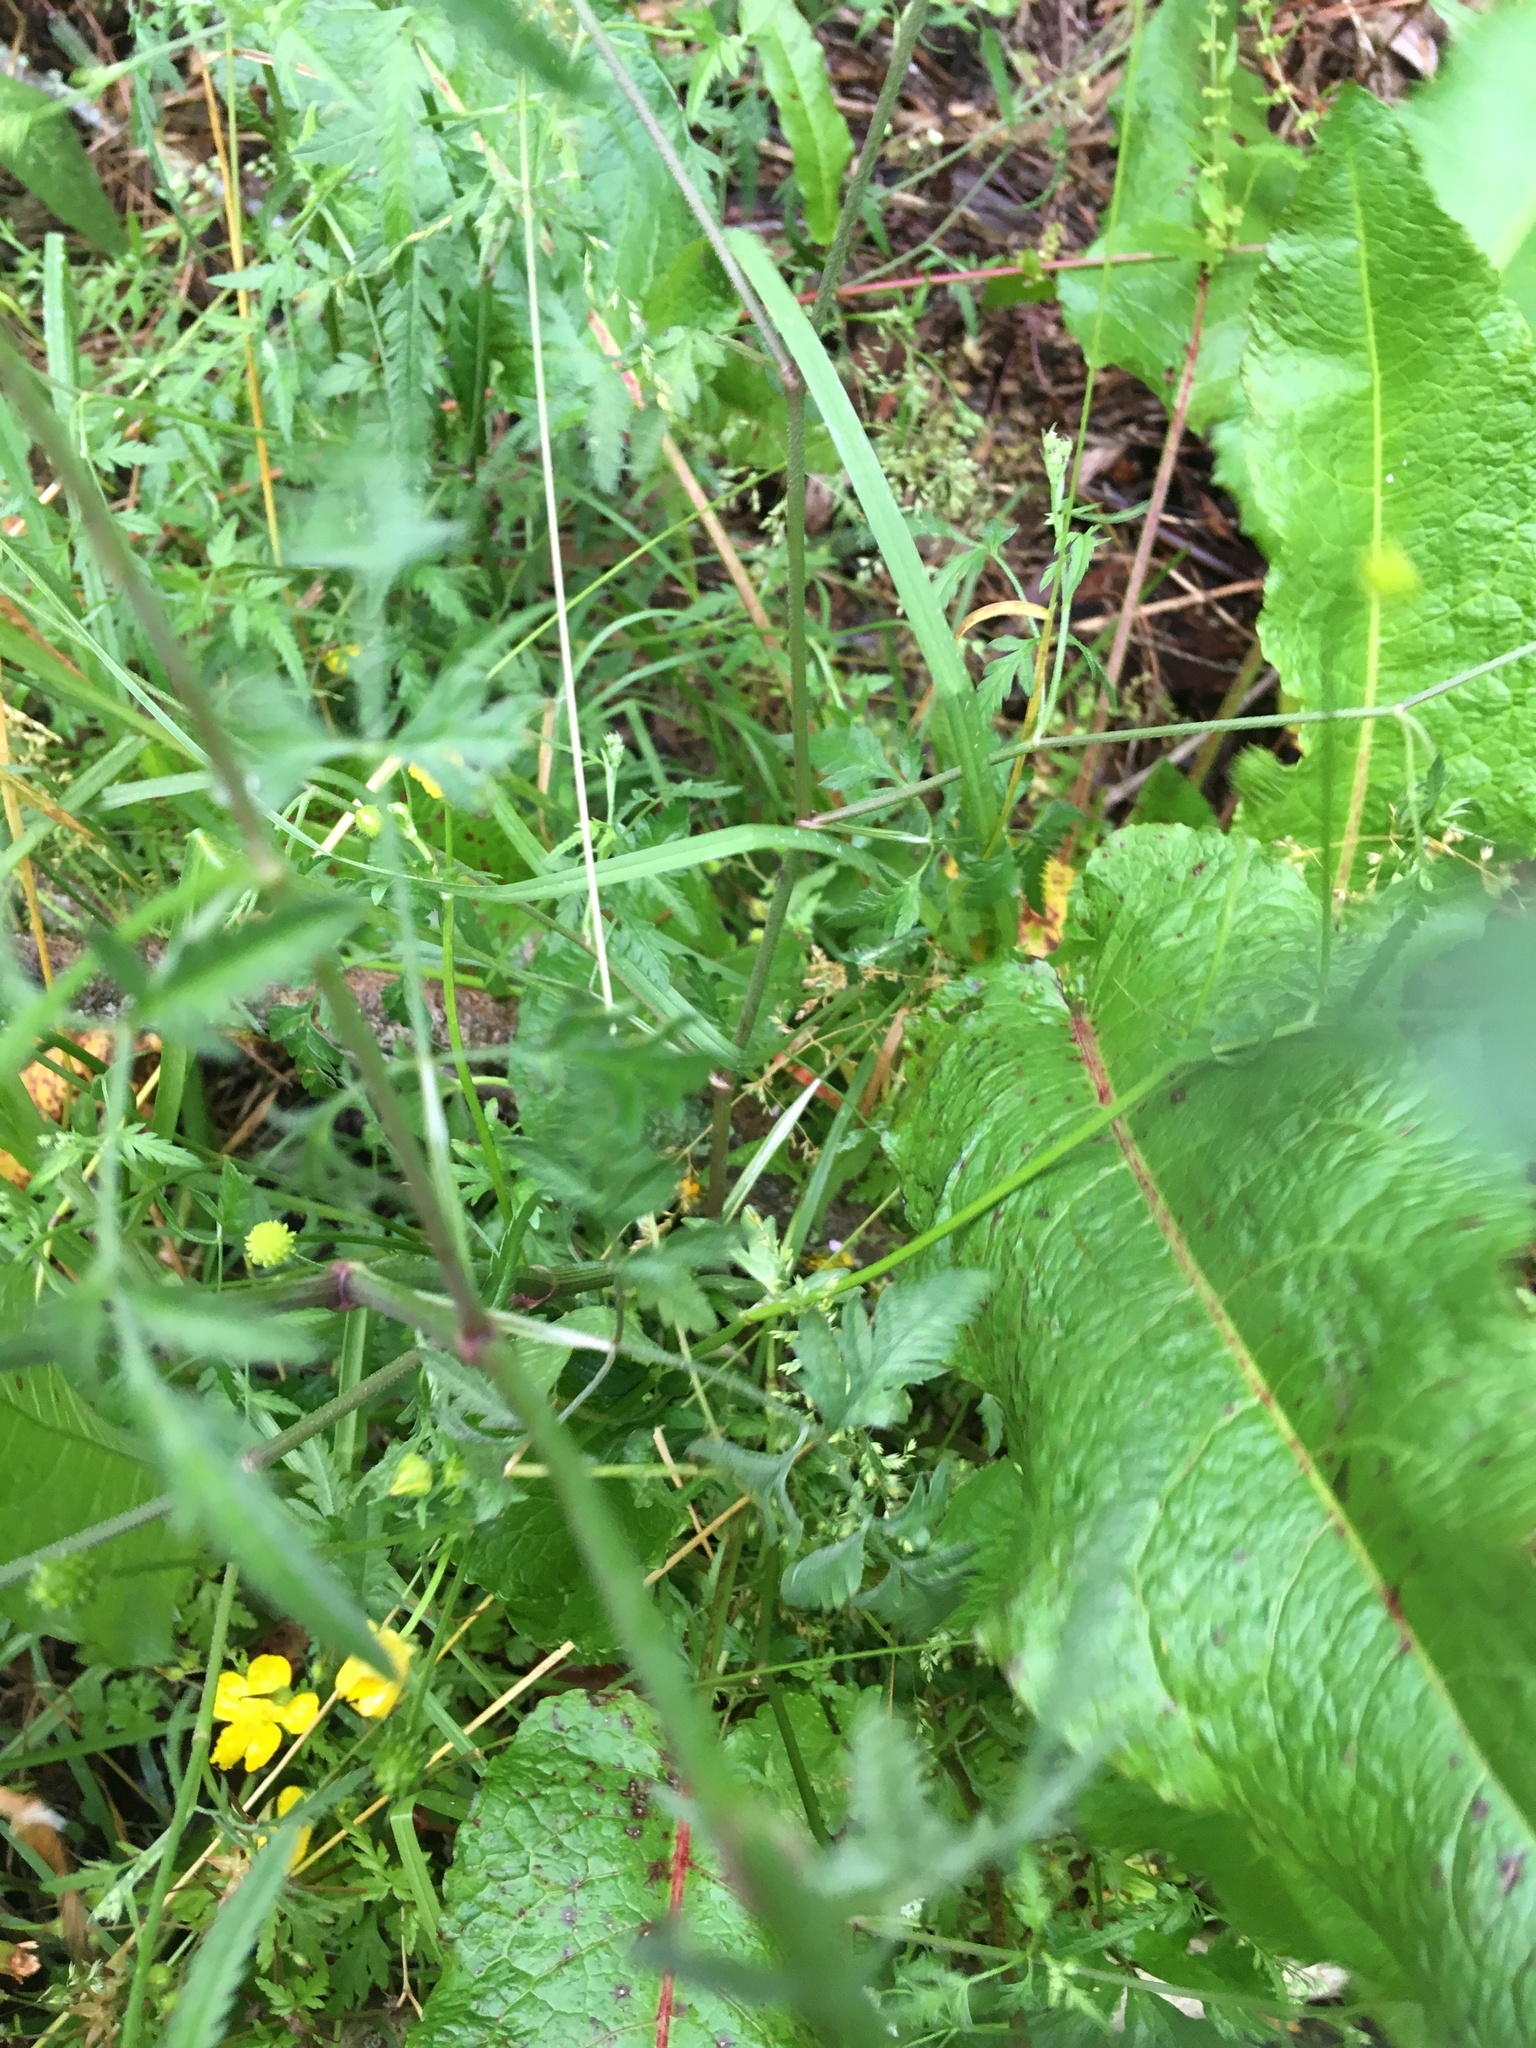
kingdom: Plantae
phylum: Tracheophyta
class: Magnoliopsida
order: Apiales
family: Apiaceae
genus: Sison
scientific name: Sison amomum
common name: Stone-parsley
